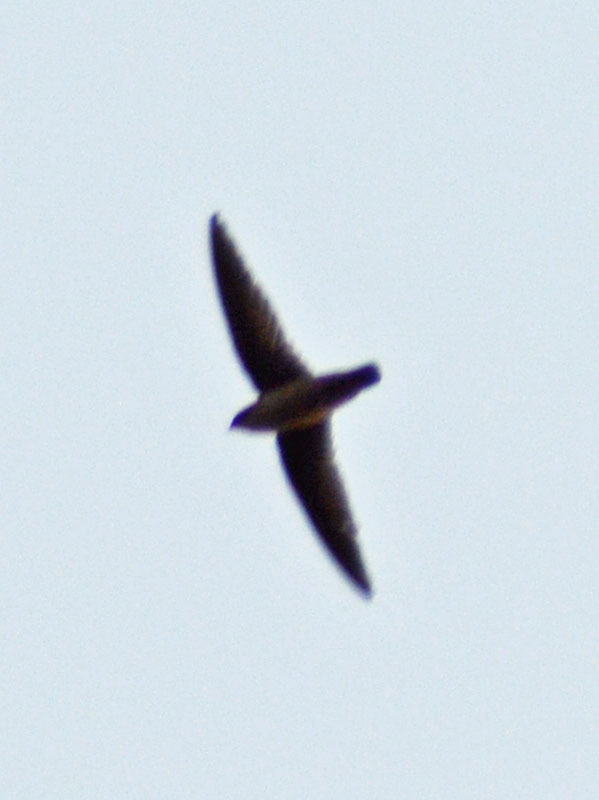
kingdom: Animalia
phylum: Chordata
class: Aves
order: Apodiformes
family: Apodidae
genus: Chaetura
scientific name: Chaetura vauxi
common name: Vaux's swift
